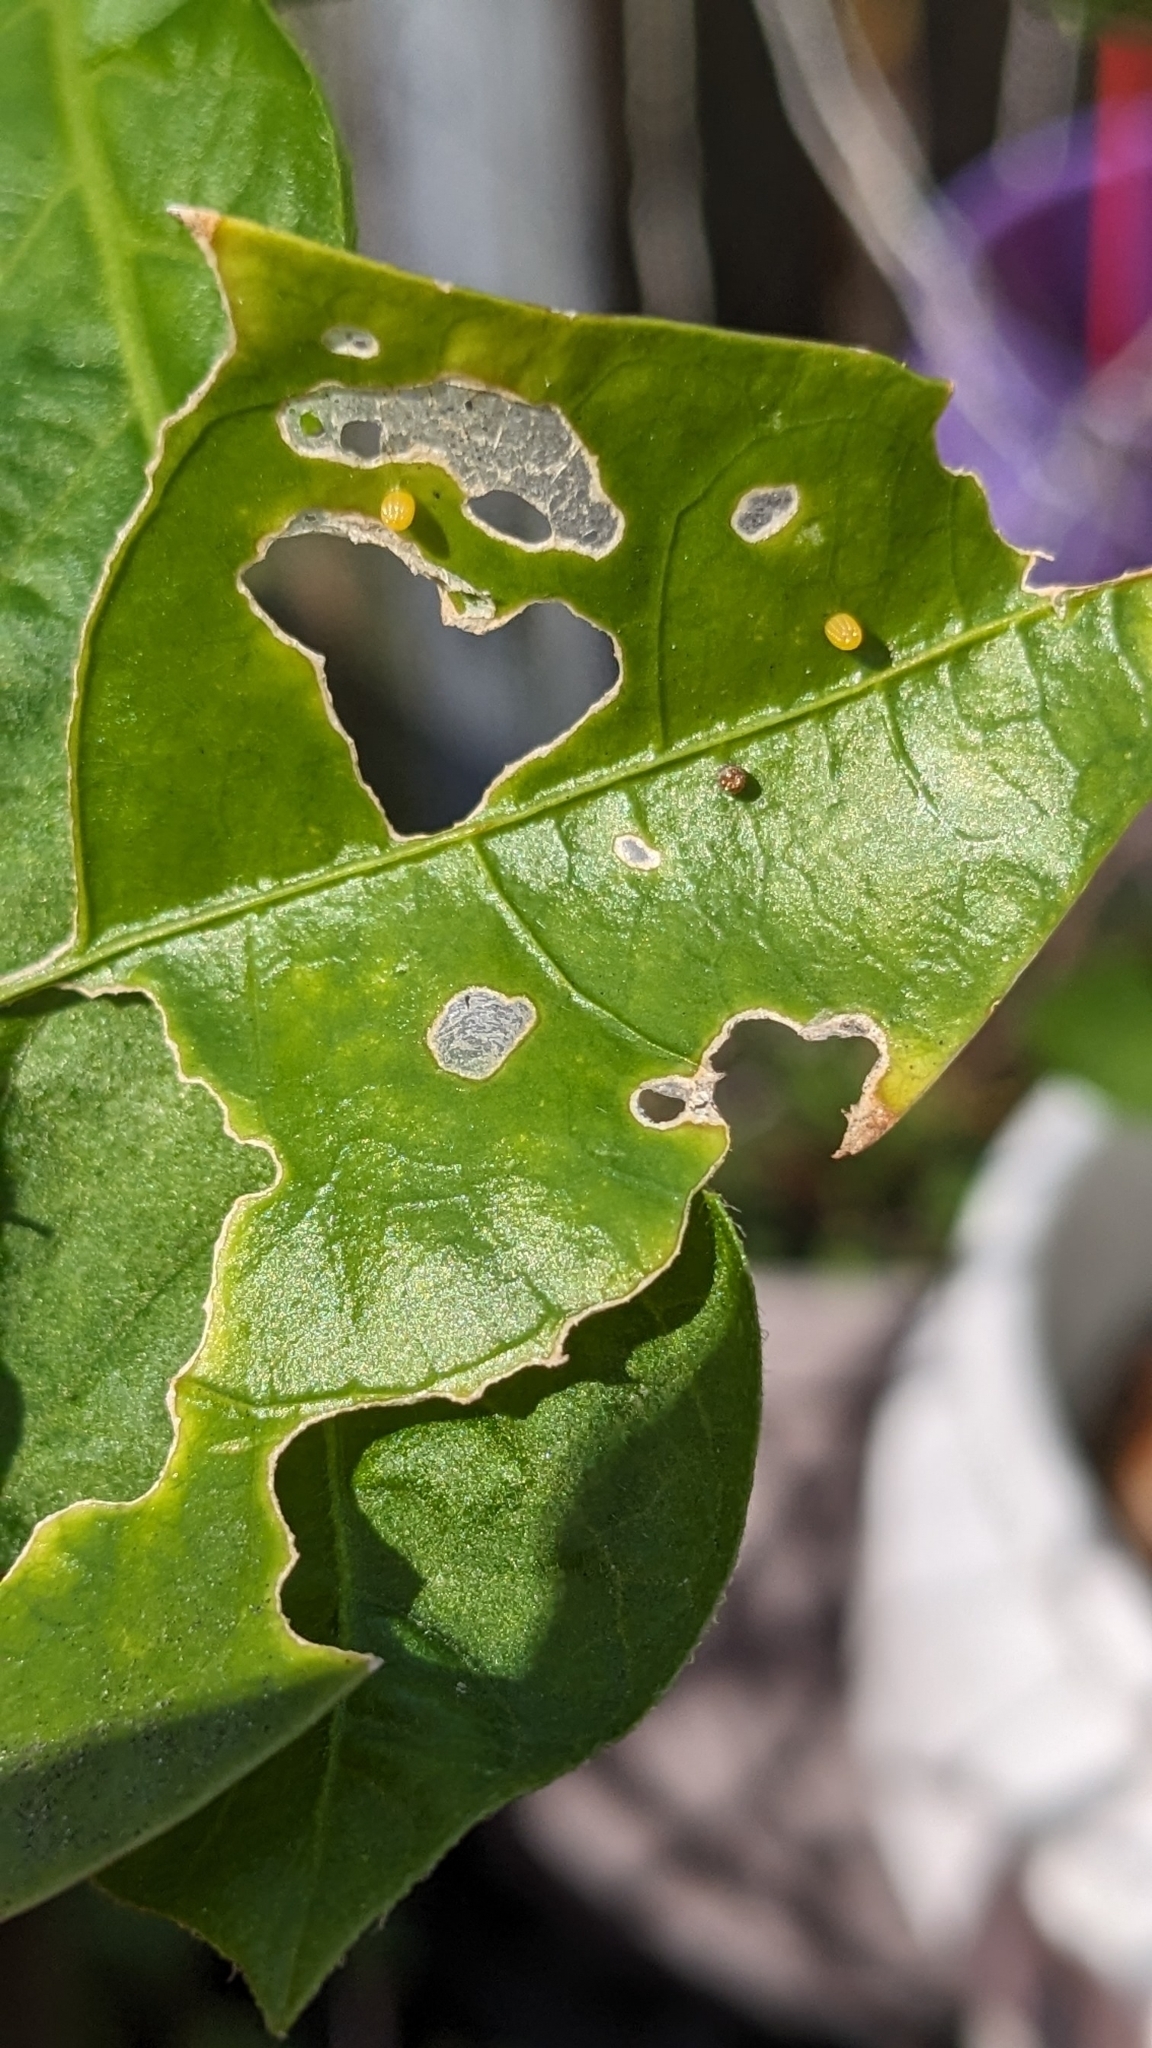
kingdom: Animalia
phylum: Arthropoda
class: Insecta
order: Lepidoptera
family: Nymphalidae
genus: Dione
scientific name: Dione vanillae
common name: Gulf fritillary
